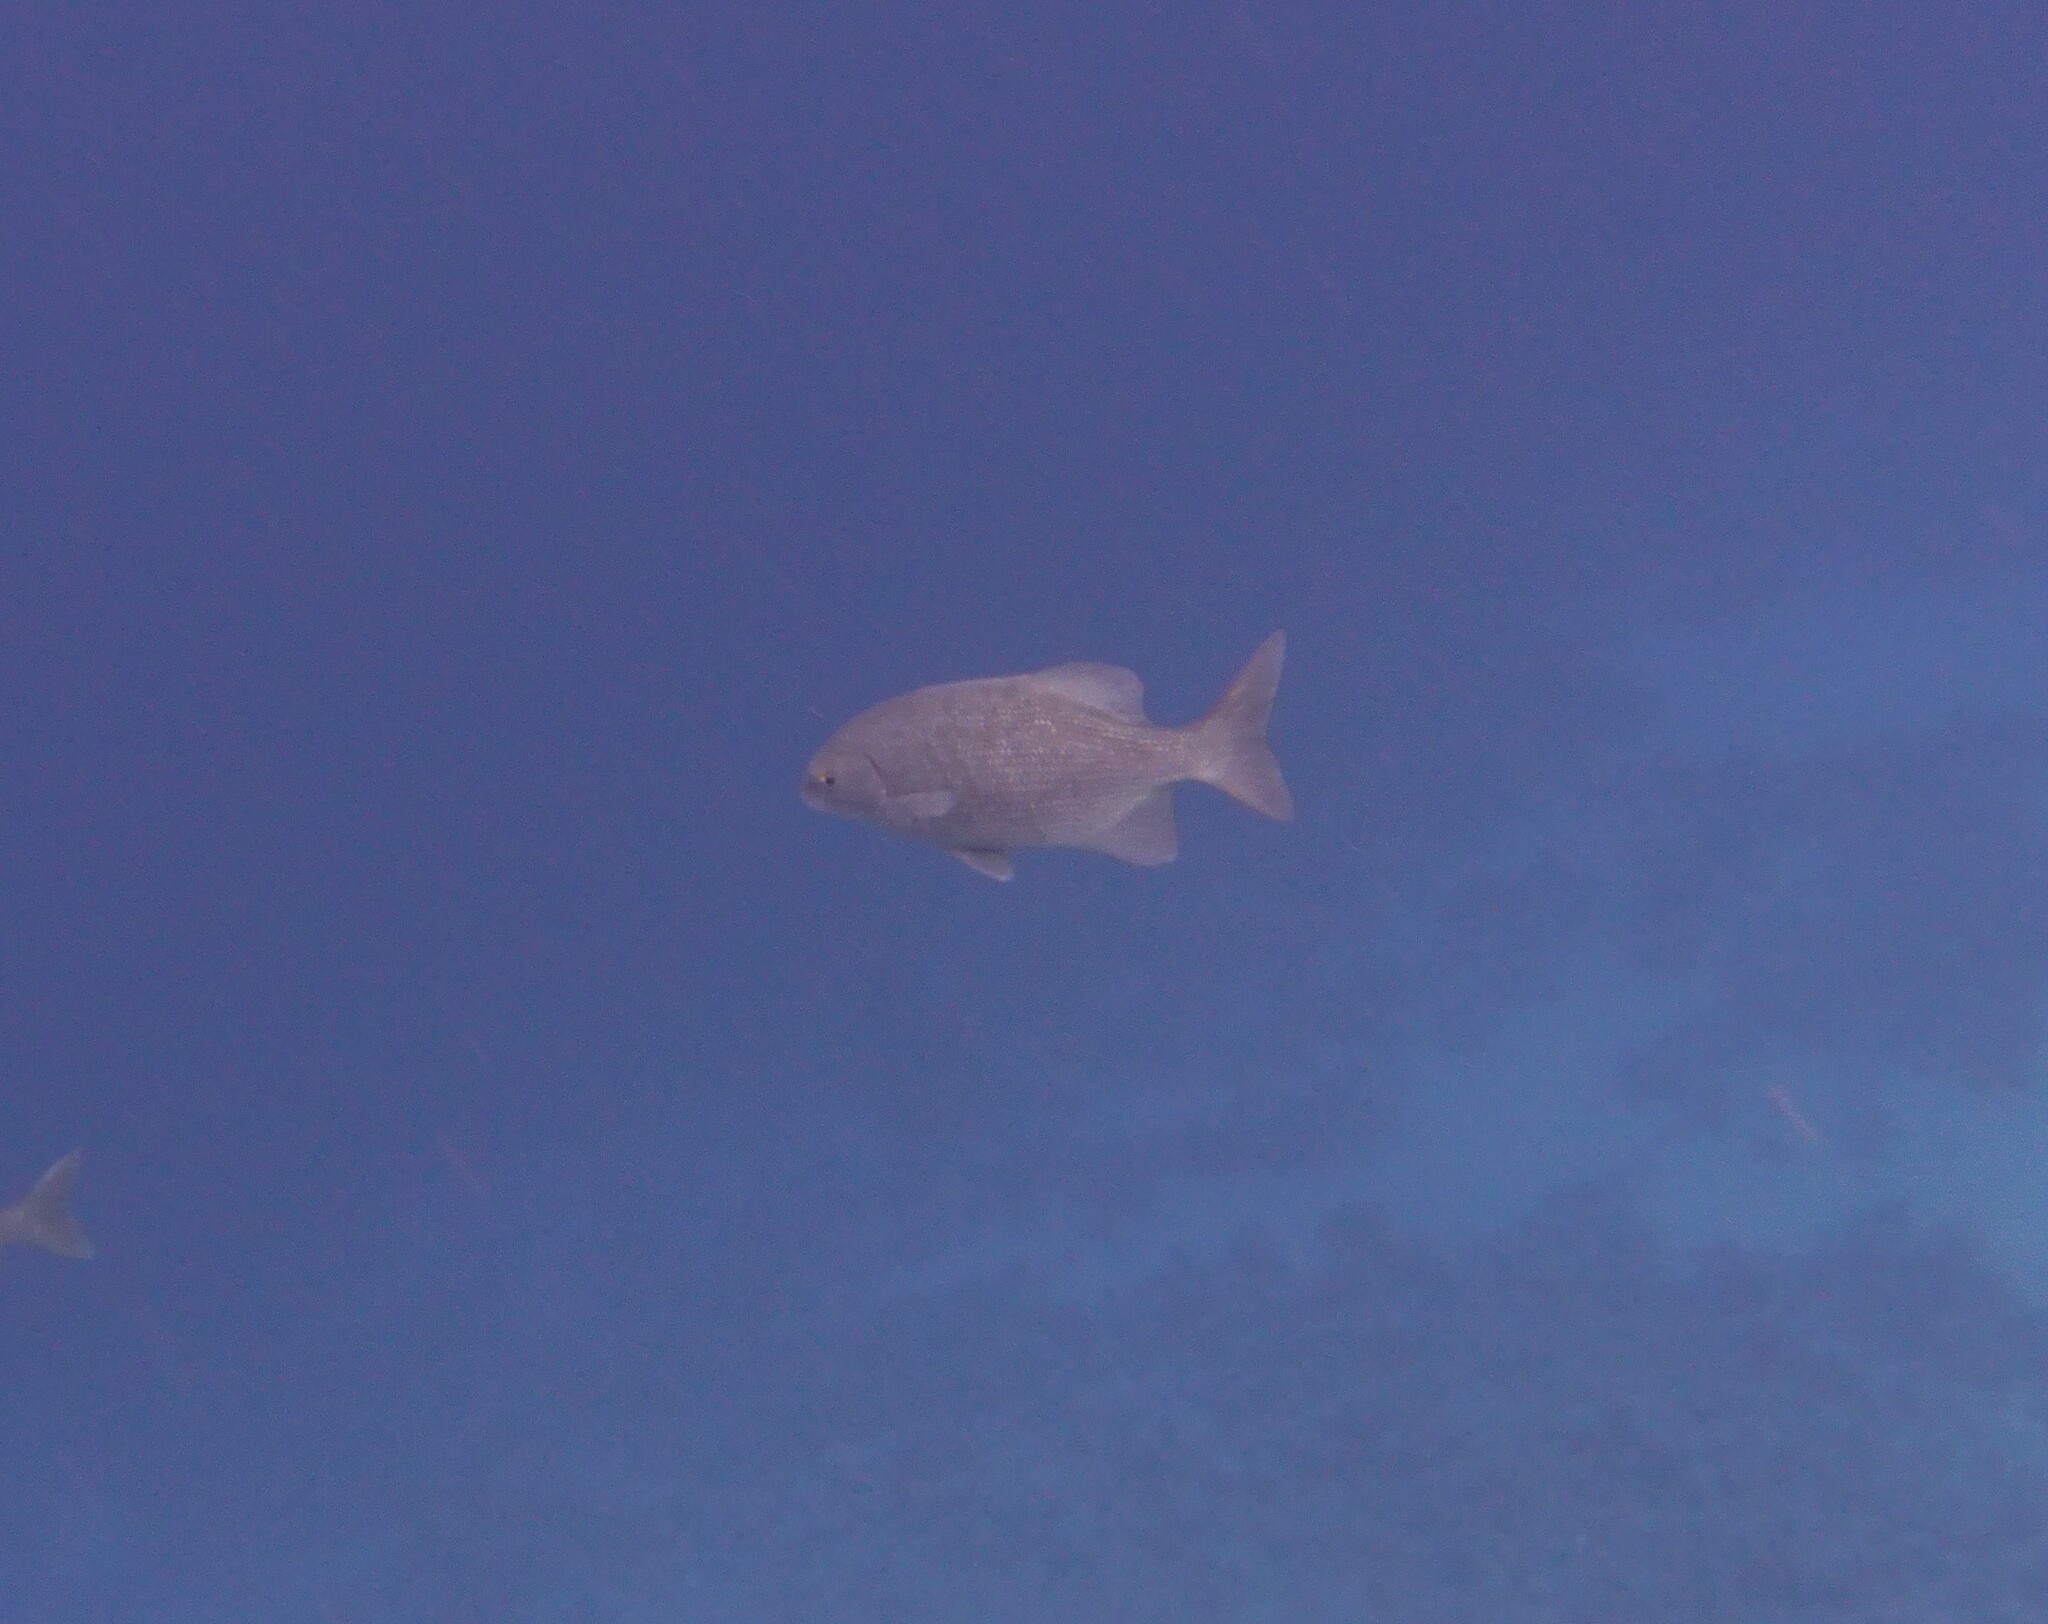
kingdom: Animalia
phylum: Chordata
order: Perciformes
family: Kyphosidae
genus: Kyphosus
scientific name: Kyphosus cinerascens
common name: Topsail drummer
